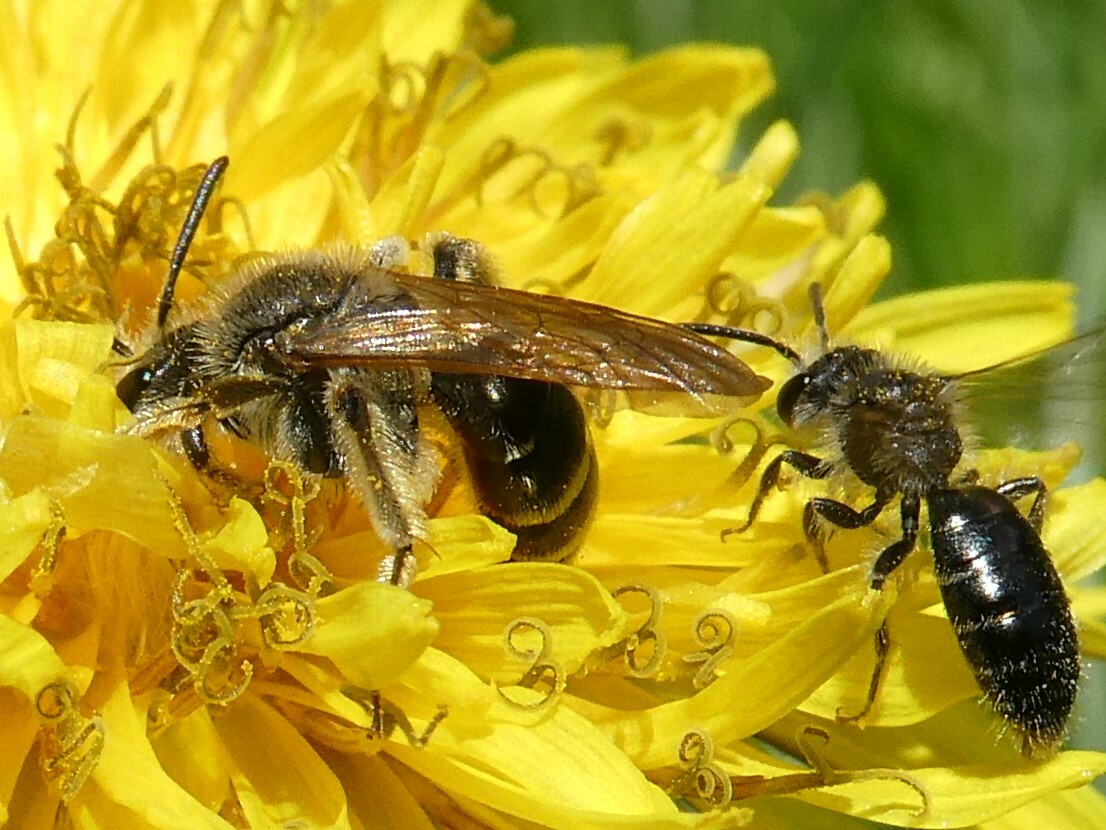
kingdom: Animalia
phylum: Arthropoda
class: Insecta
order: Hymenoptera
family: Andrenidae
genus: Andrena
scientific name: Andrena nasonii
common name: Nason's mining bee
